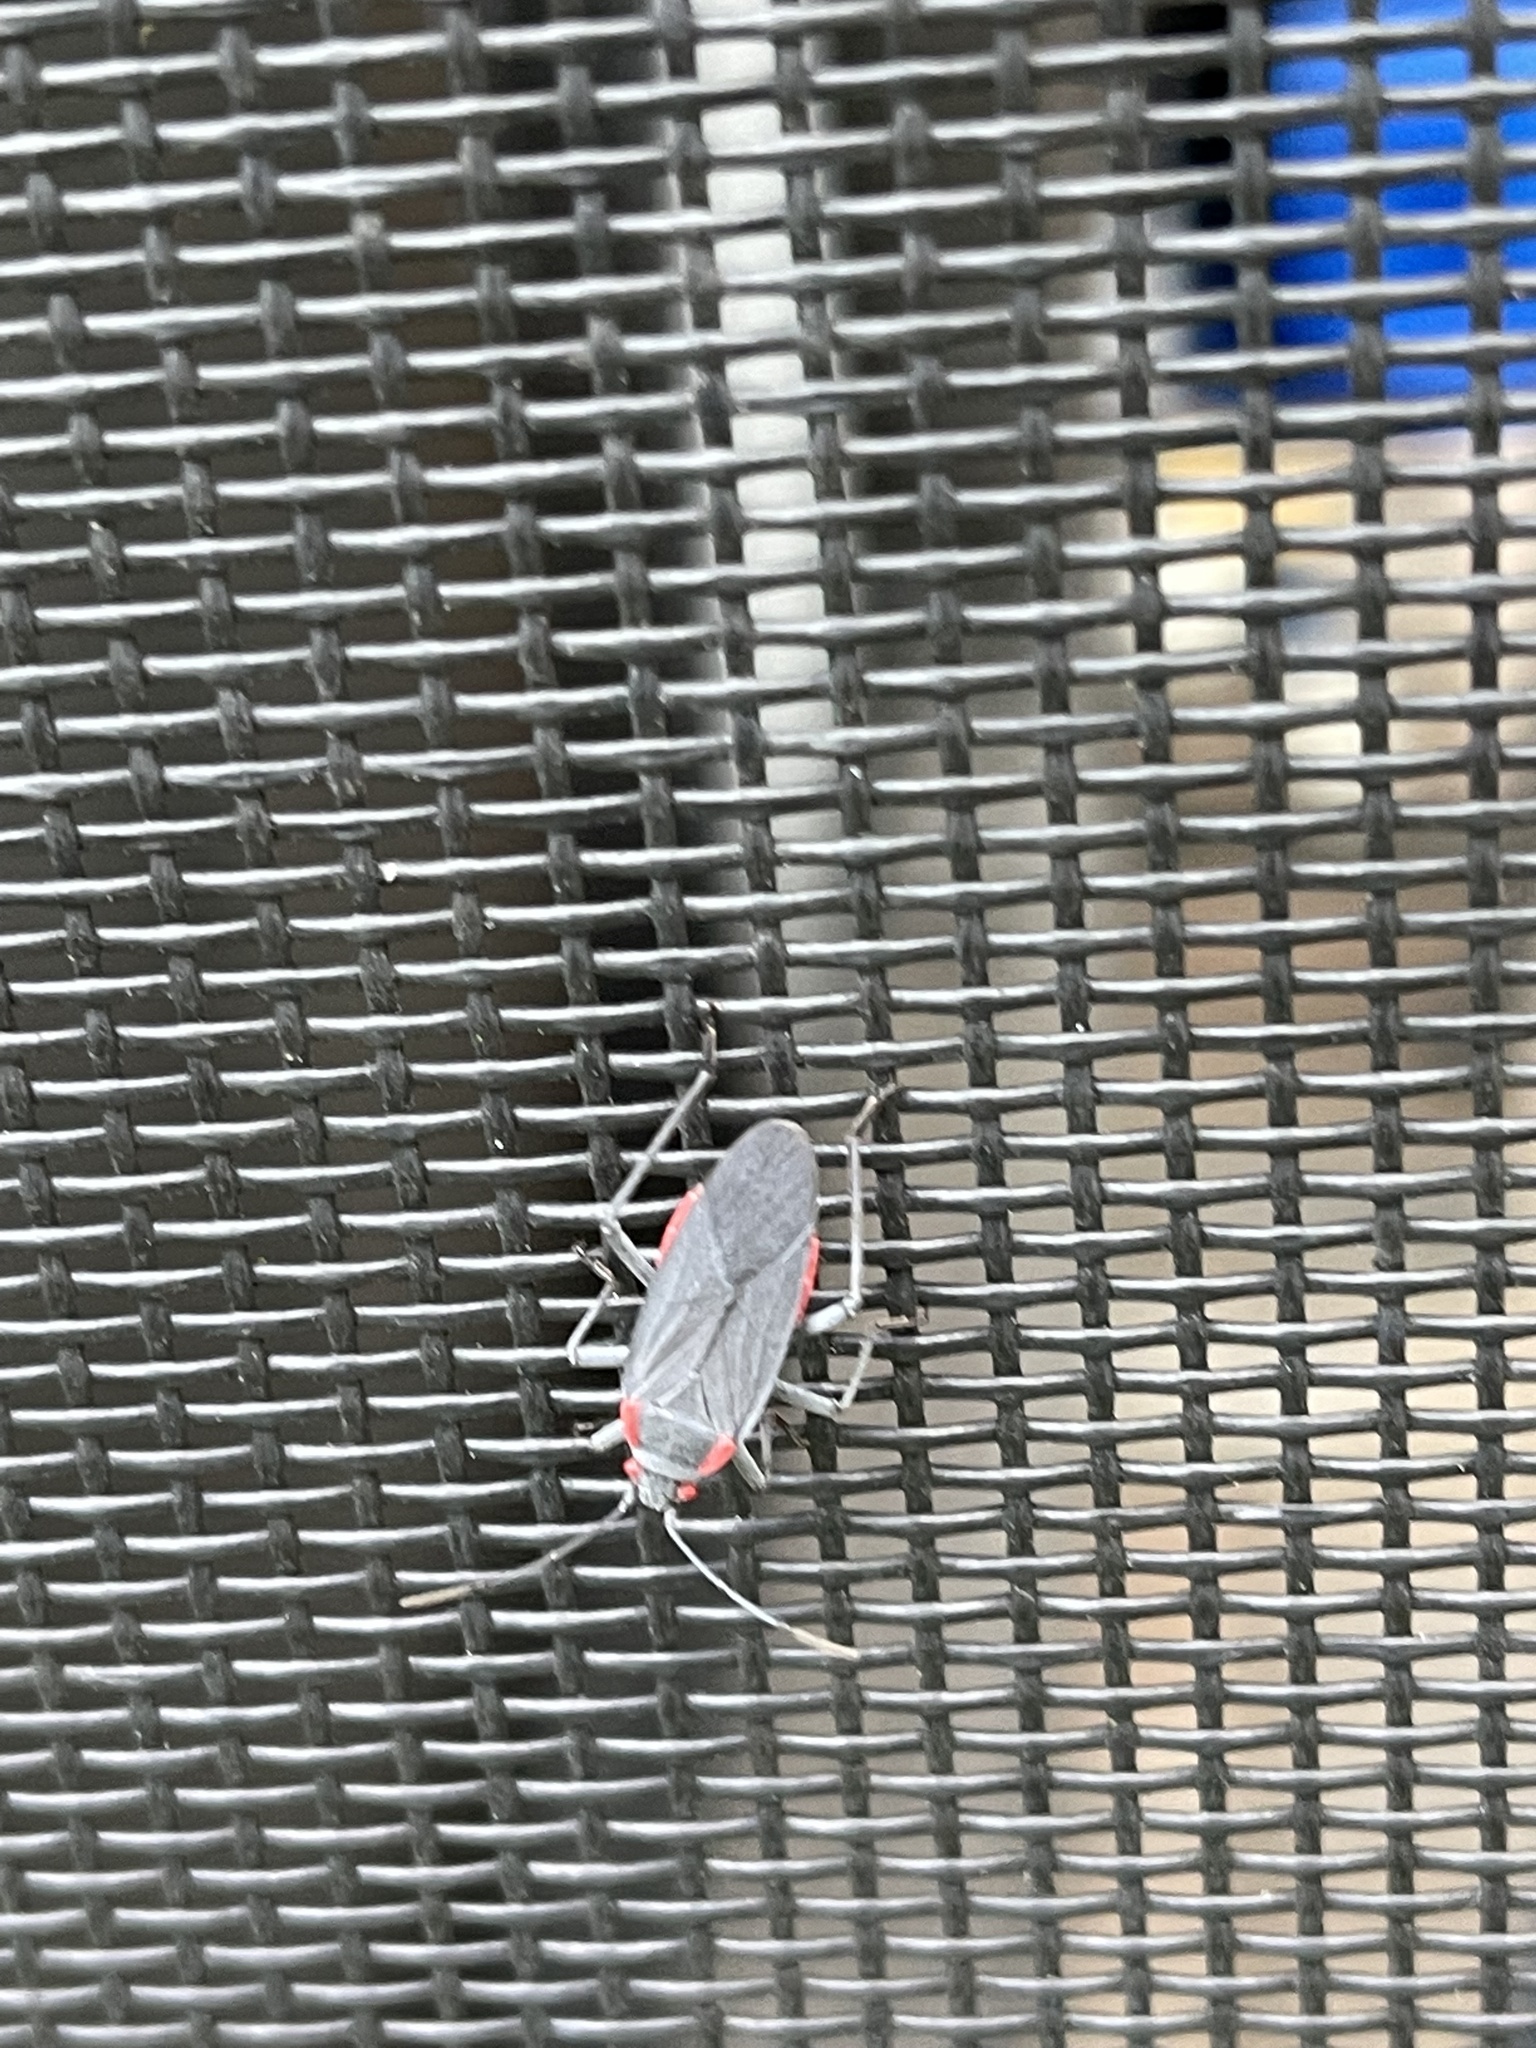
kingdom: Animalia
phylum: Arthropoda
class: Insecta
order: Hemiptera
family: Rhopalidae
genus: Jadera
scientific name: Jadera haematoloma
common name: Red-shouldered bug
